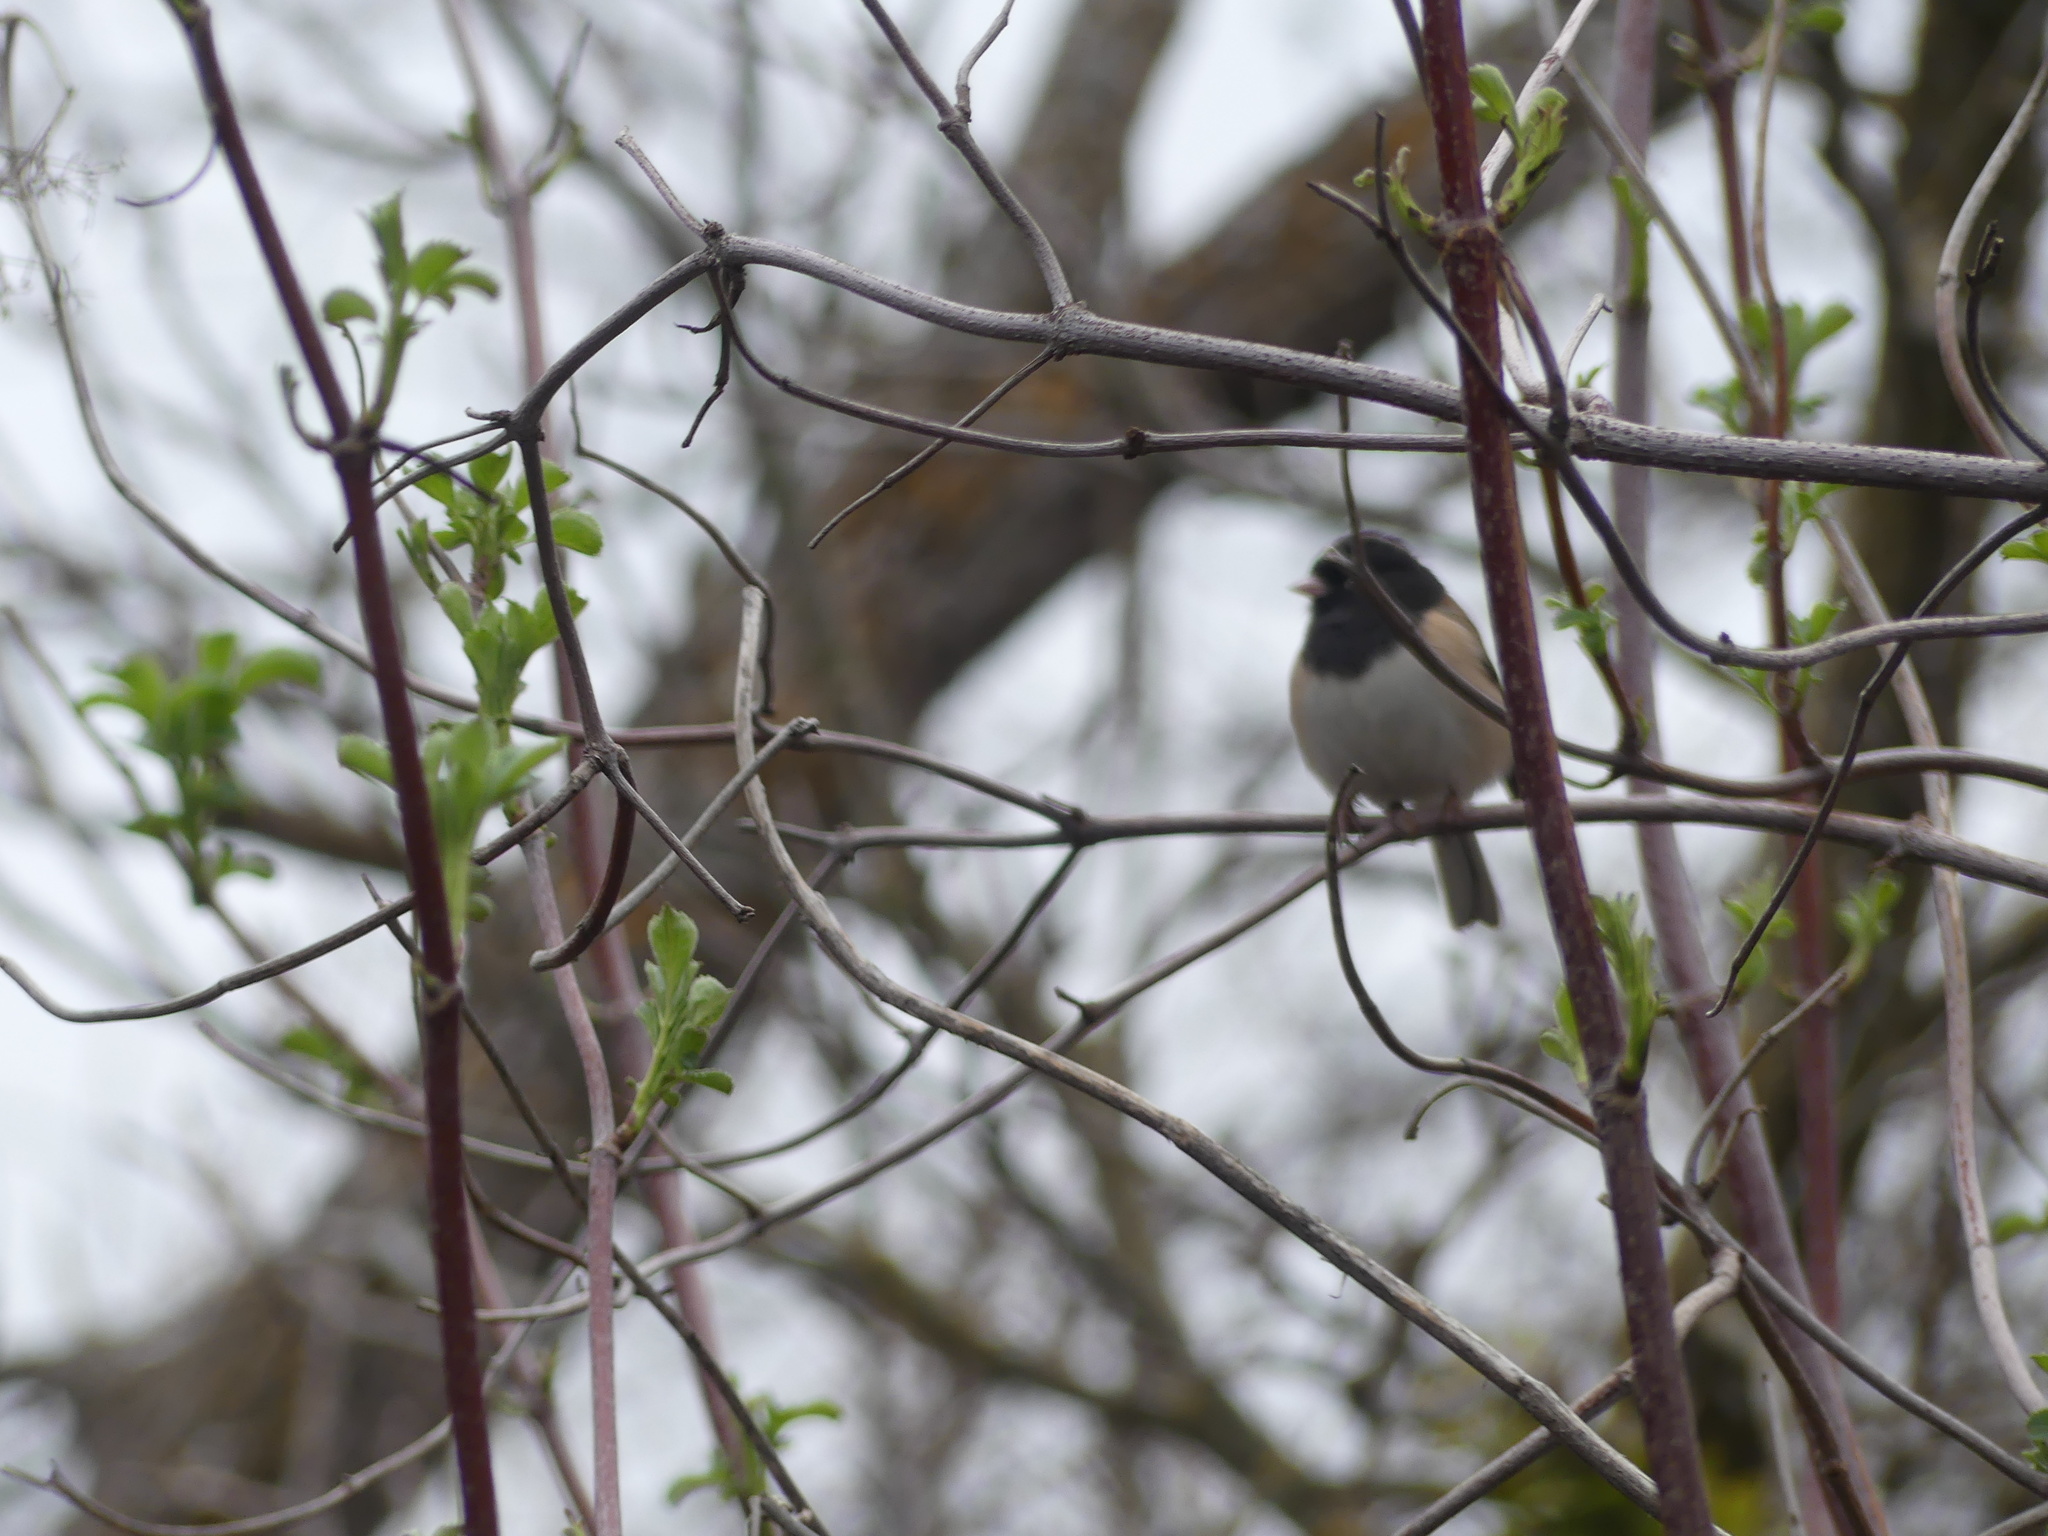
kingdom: Animalia
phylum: Chordata
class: Aves
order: Passeriformes
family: Passerellidae
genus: Junco
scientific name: Junco hyemalis
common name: Dark-eyed junco
